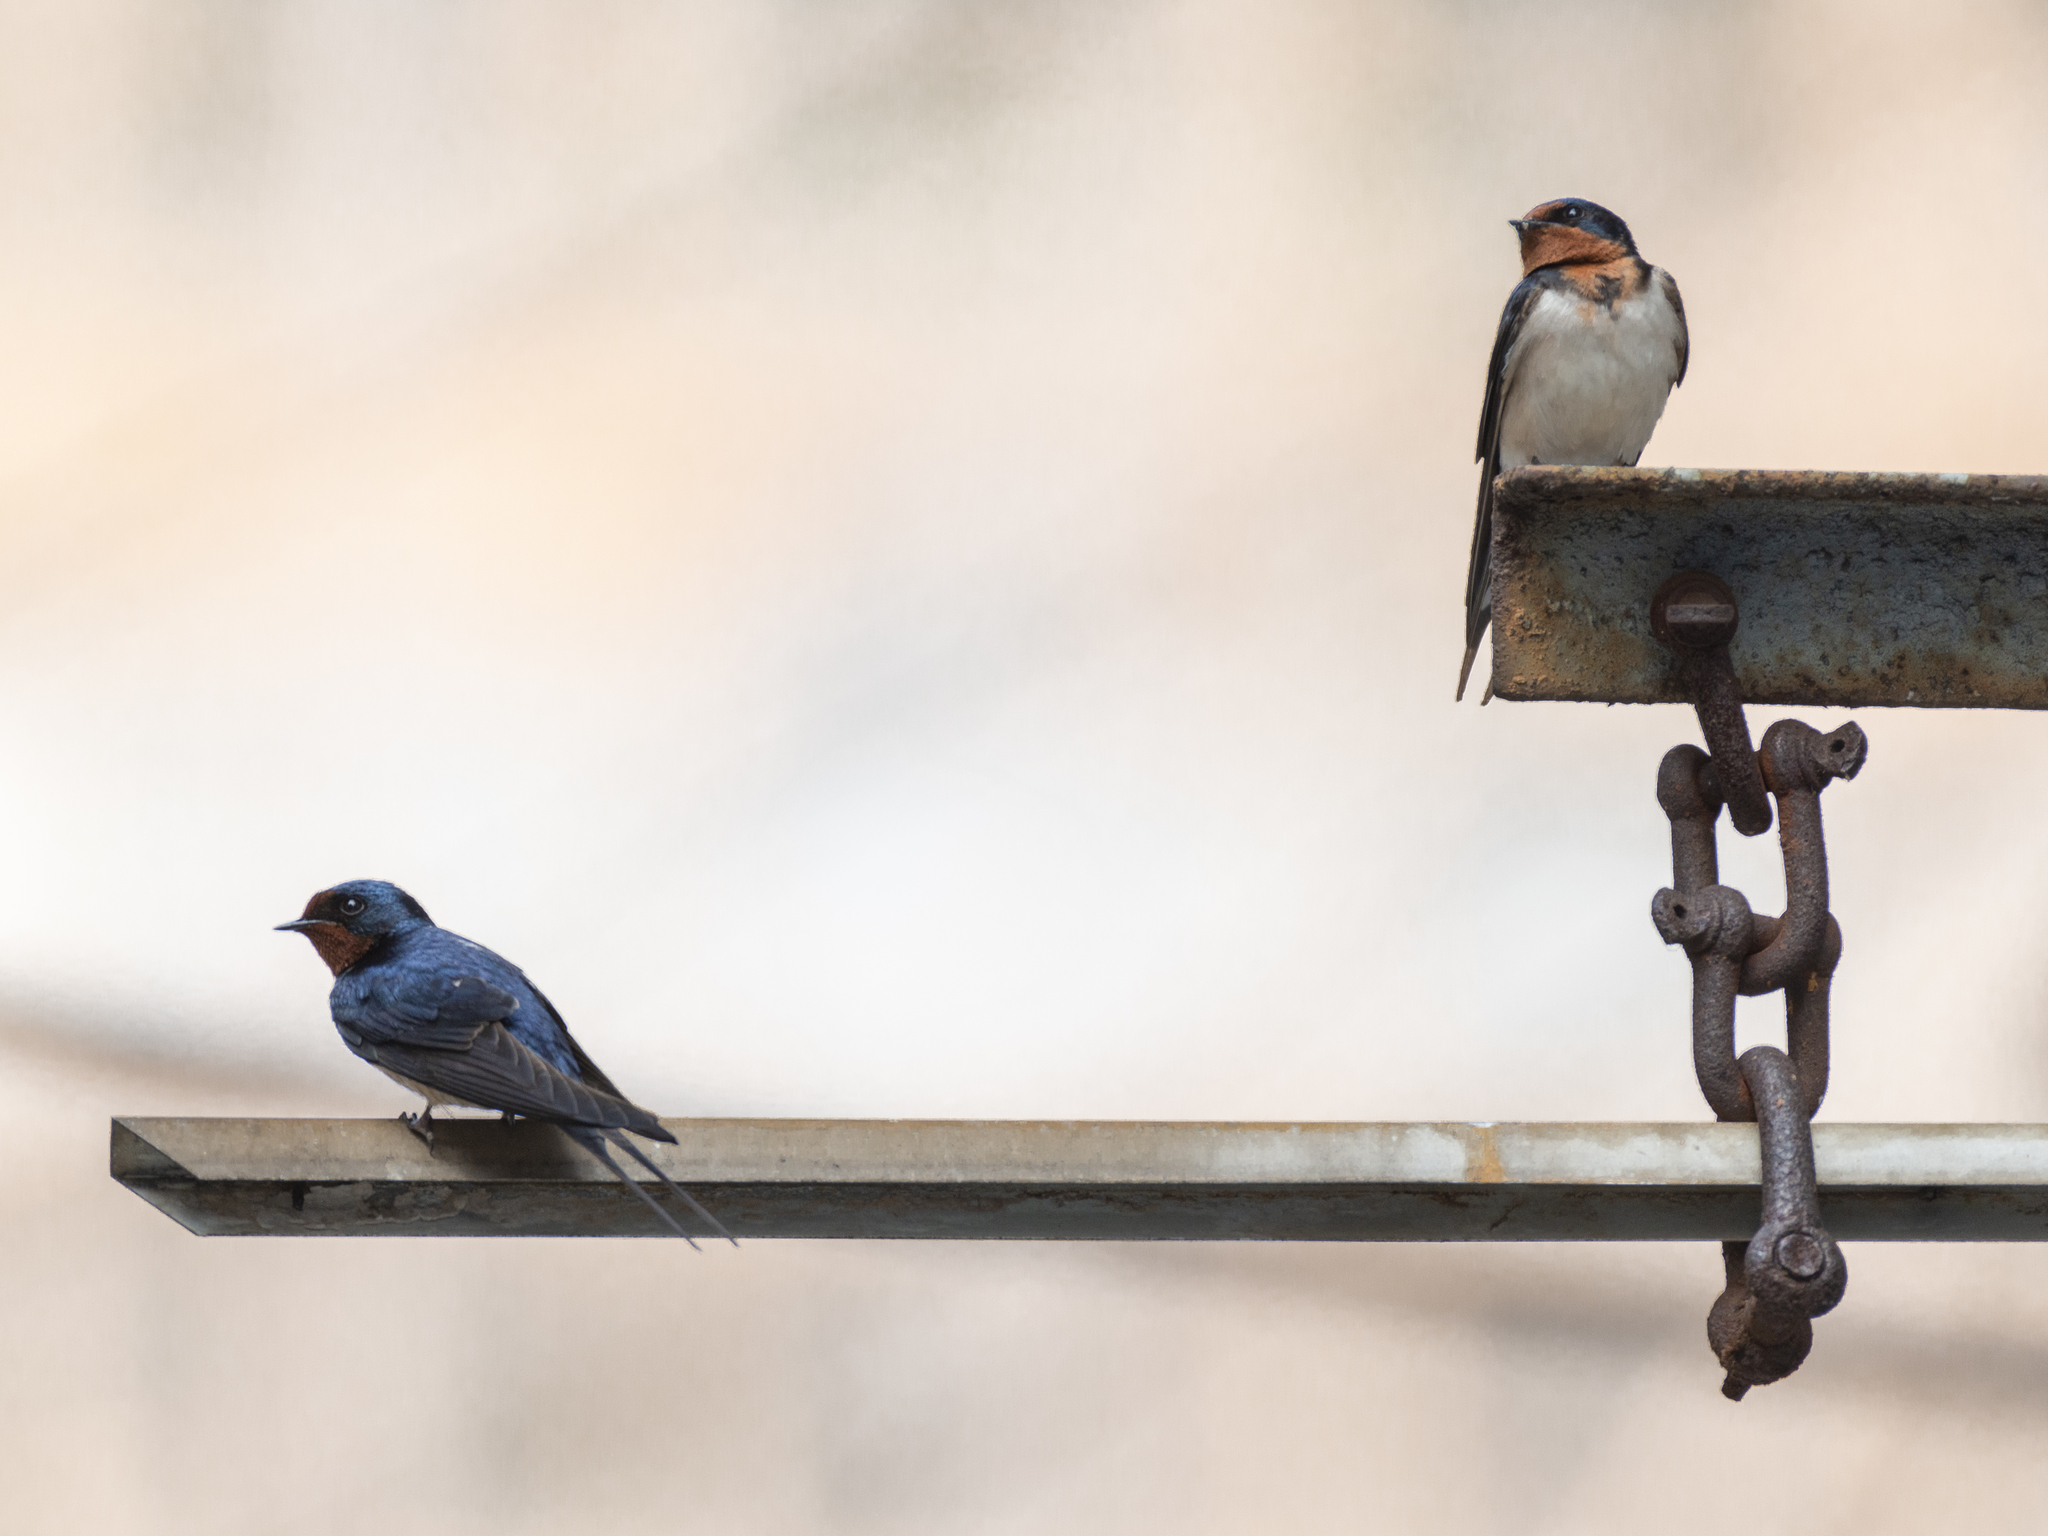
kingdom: Animalia
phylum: Chordata
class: Aves
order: Passeriformes
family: Hirundinidae
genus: Hirundo
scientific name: Hirundo rustica
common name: Barn swallow
